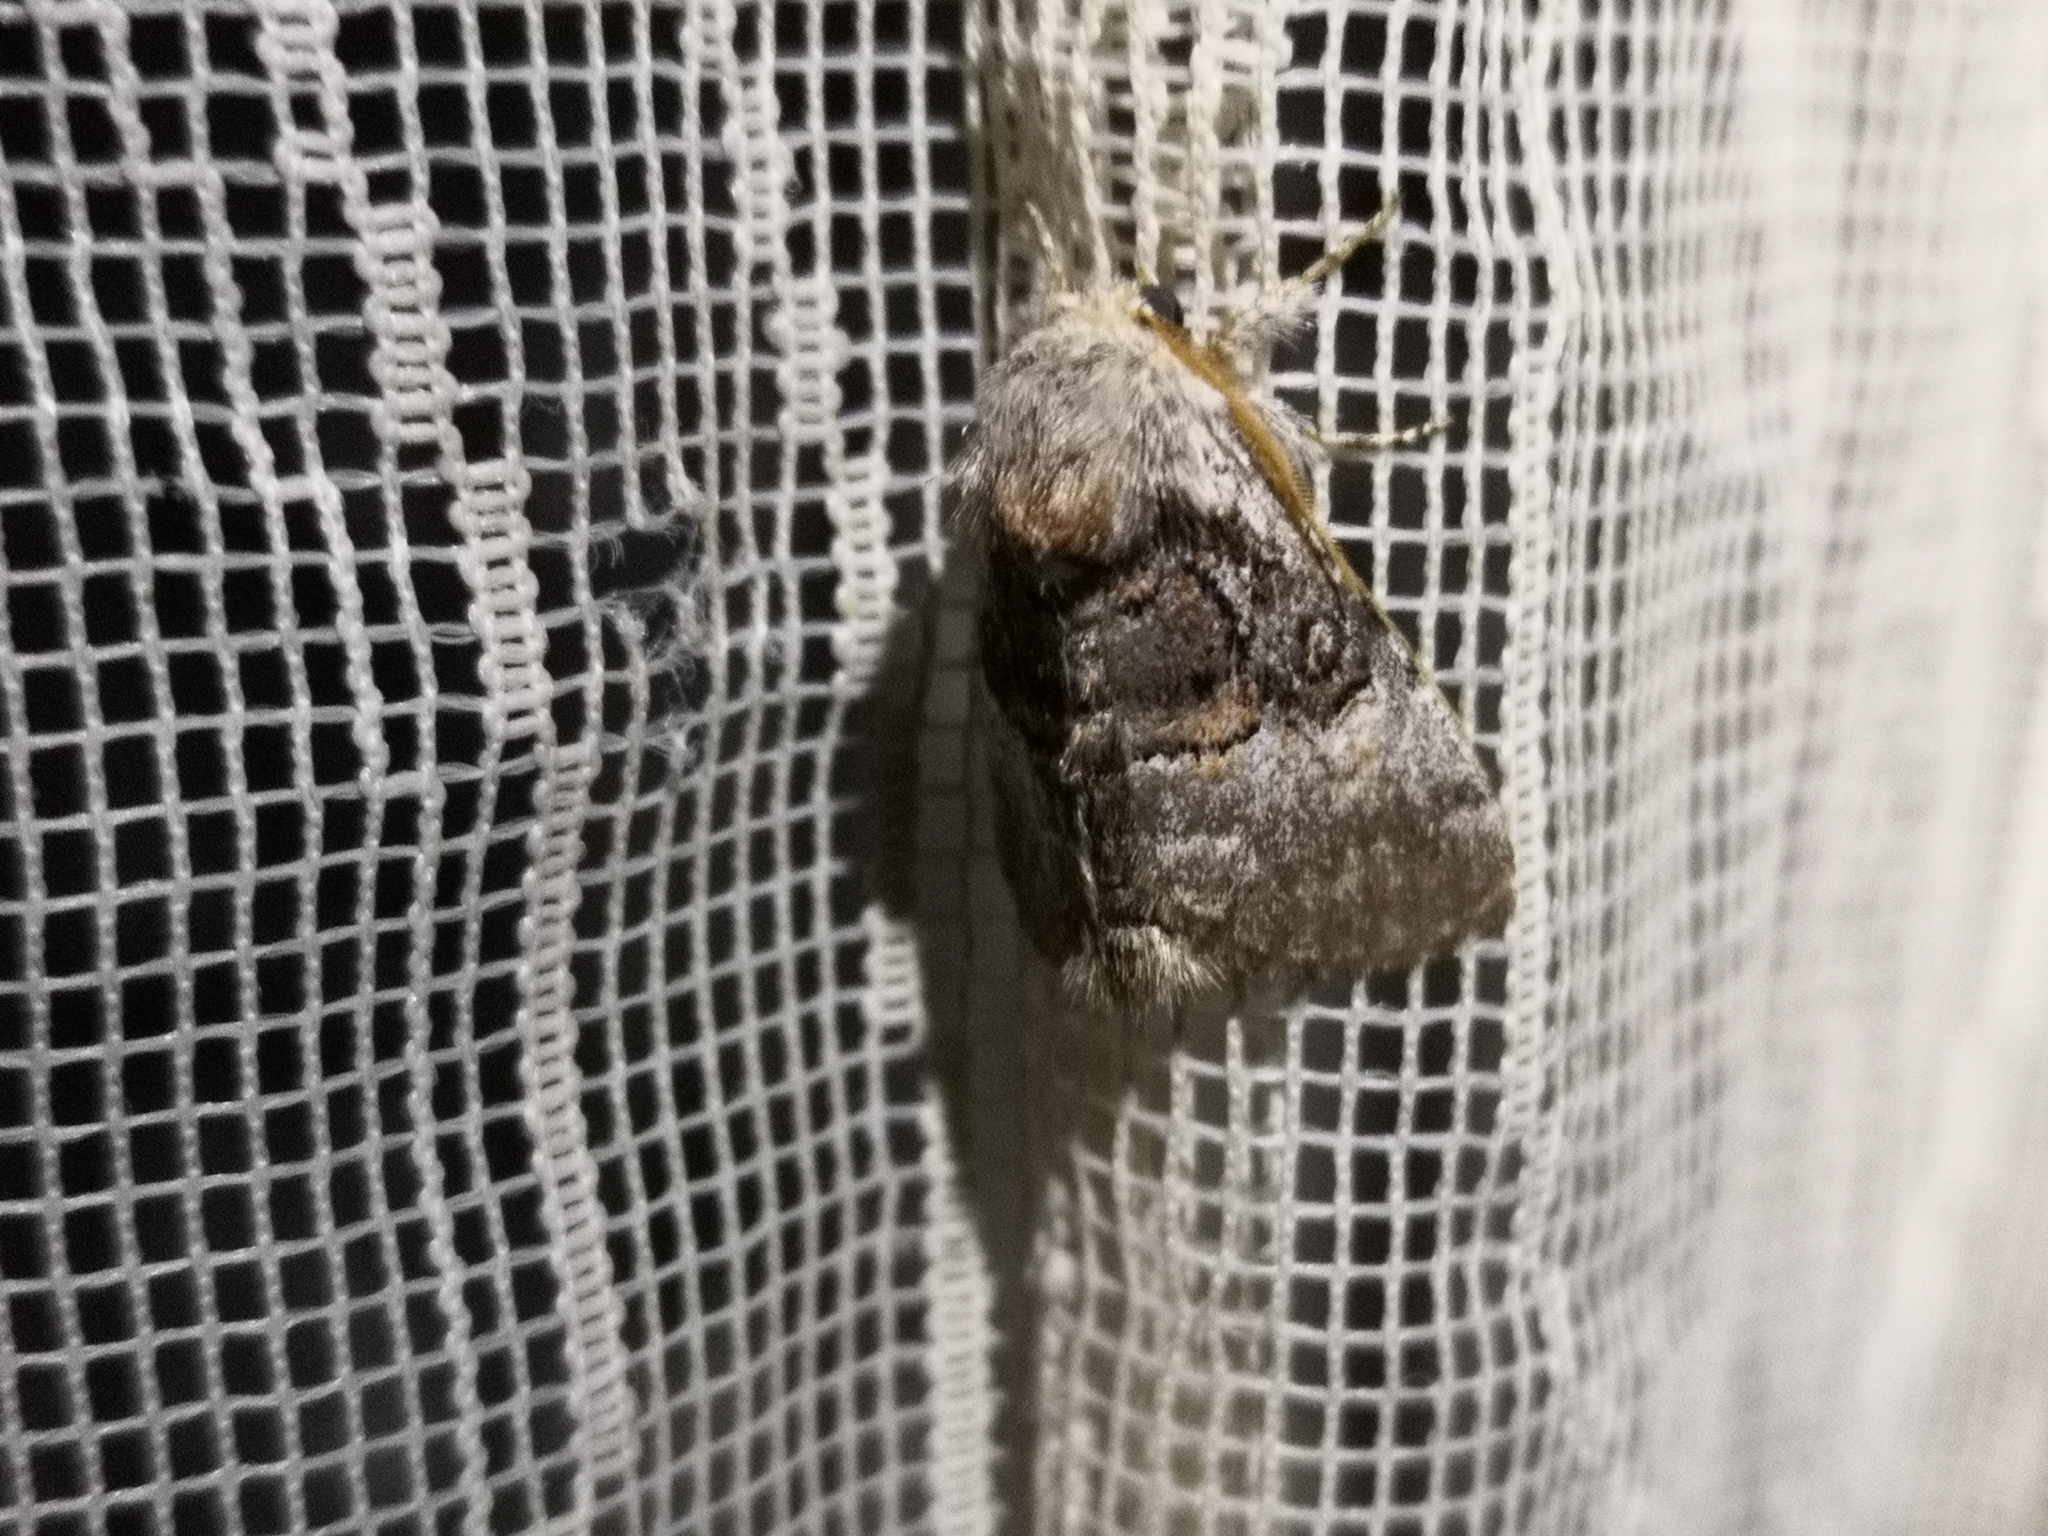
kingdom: Animalia
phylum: Arthropoda
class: Insecta
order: Lepidoptera
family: Noctuidae
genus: Colocasia
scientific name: Colocasia coryli
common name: Nut-tree tussock
